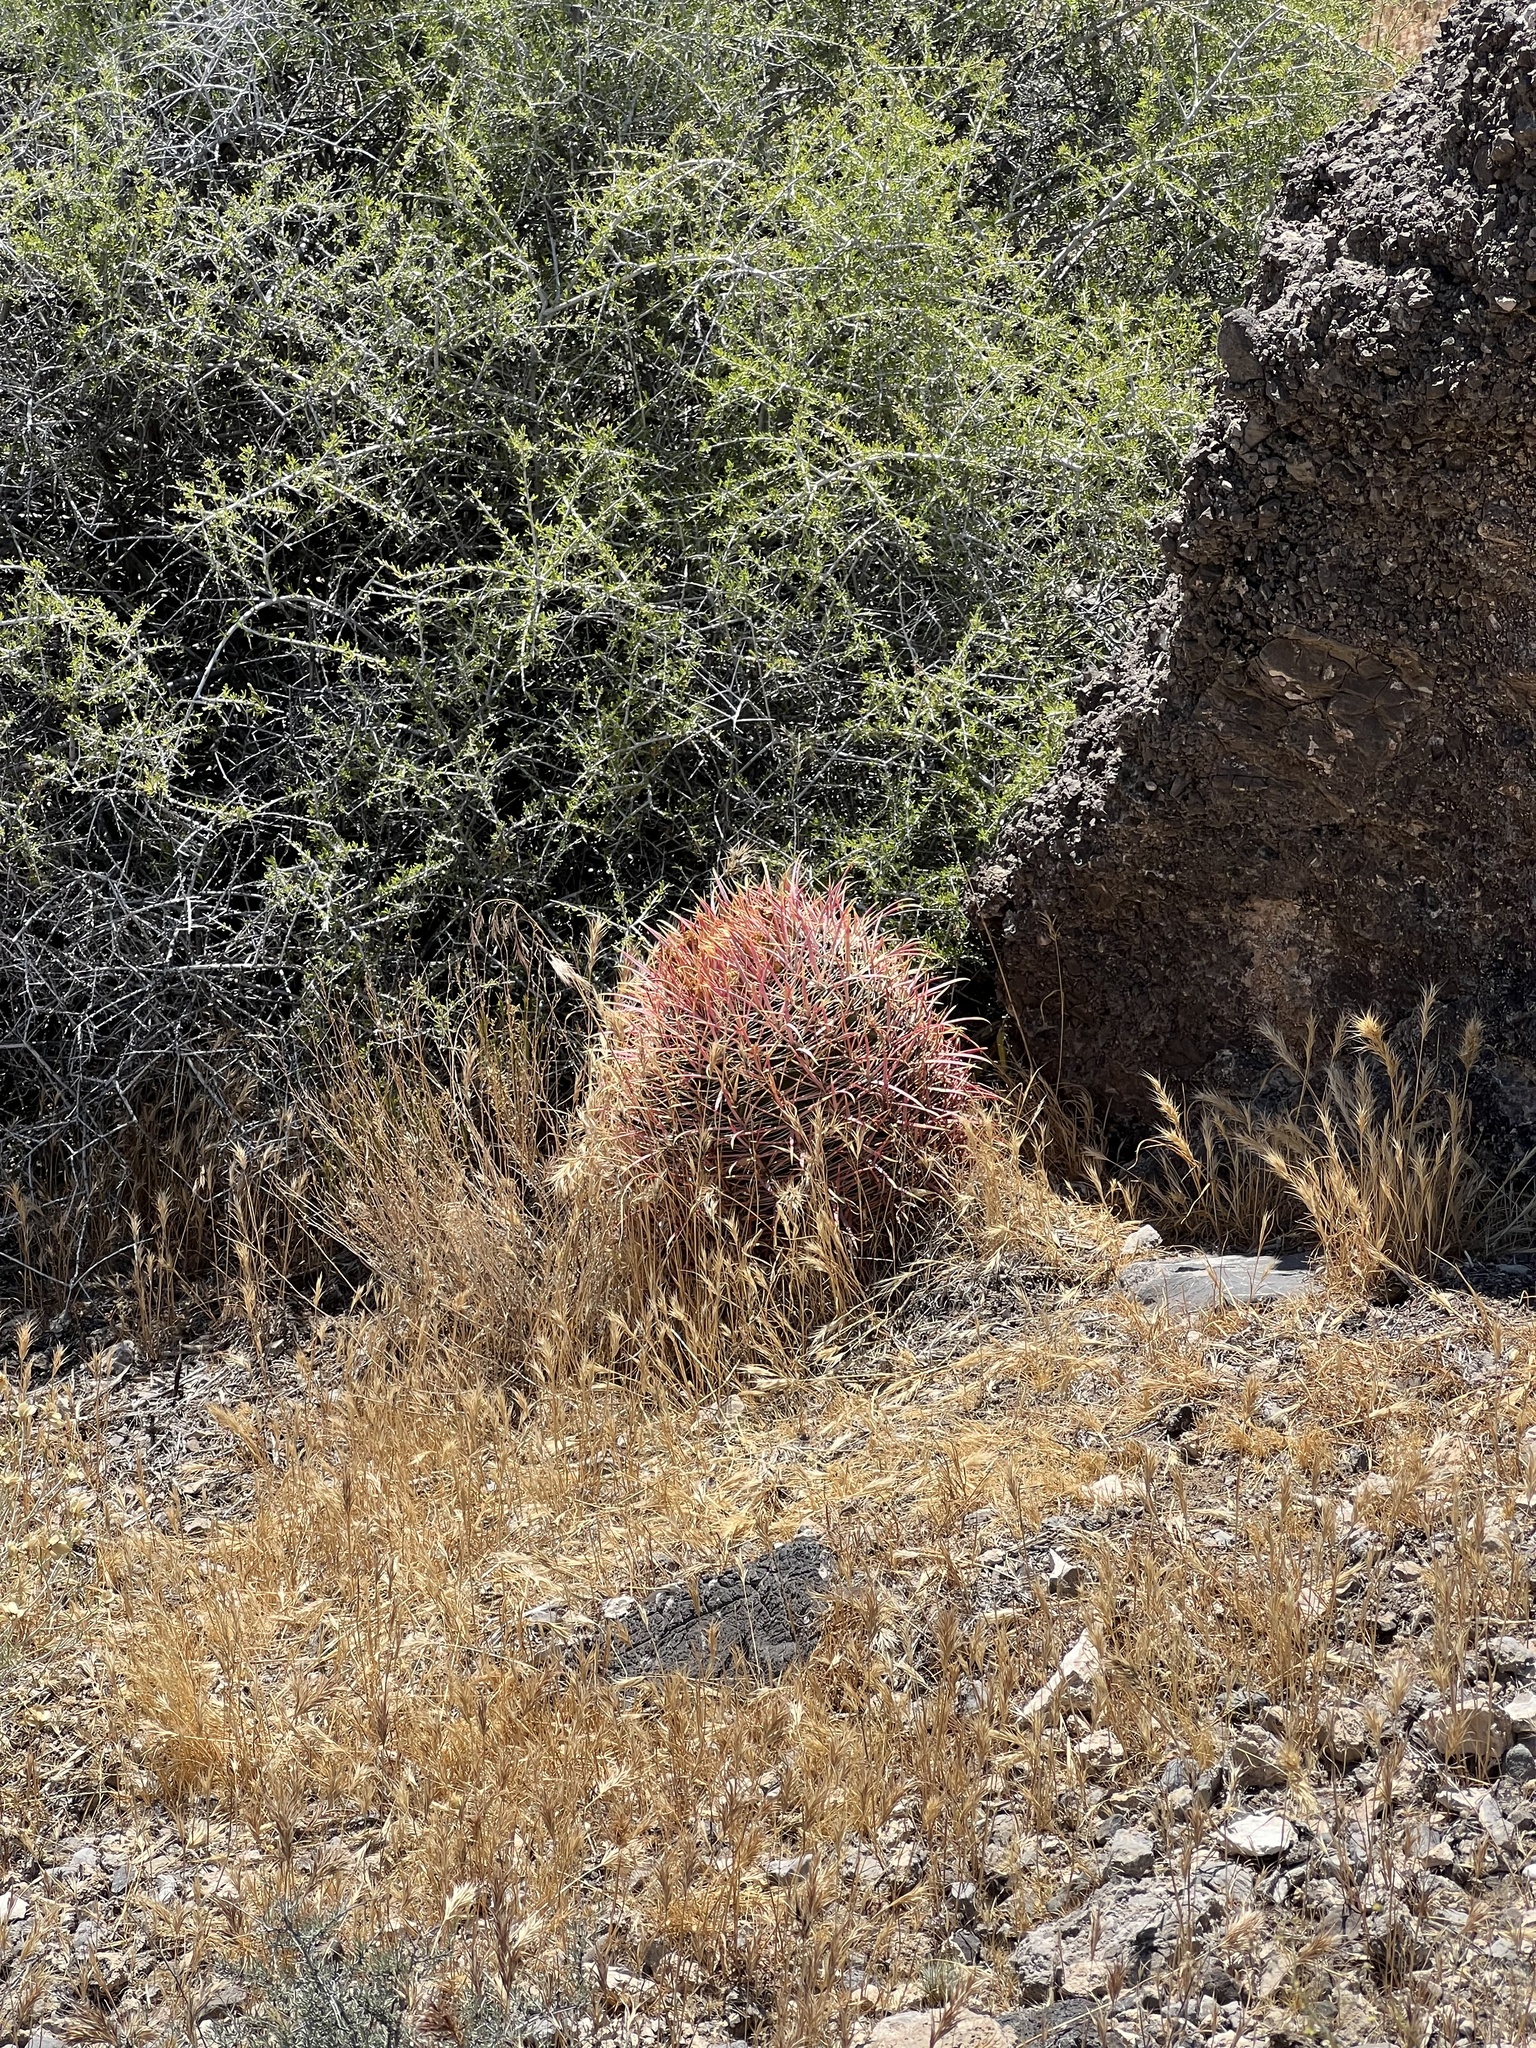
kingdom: Plantae
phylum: Tracheophyta
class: Magnoliopsida
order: Caryophyllales
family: Cactaceae
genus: Ferocactus
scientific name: Ferocactus cylindraceus
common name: California barrel cactus
